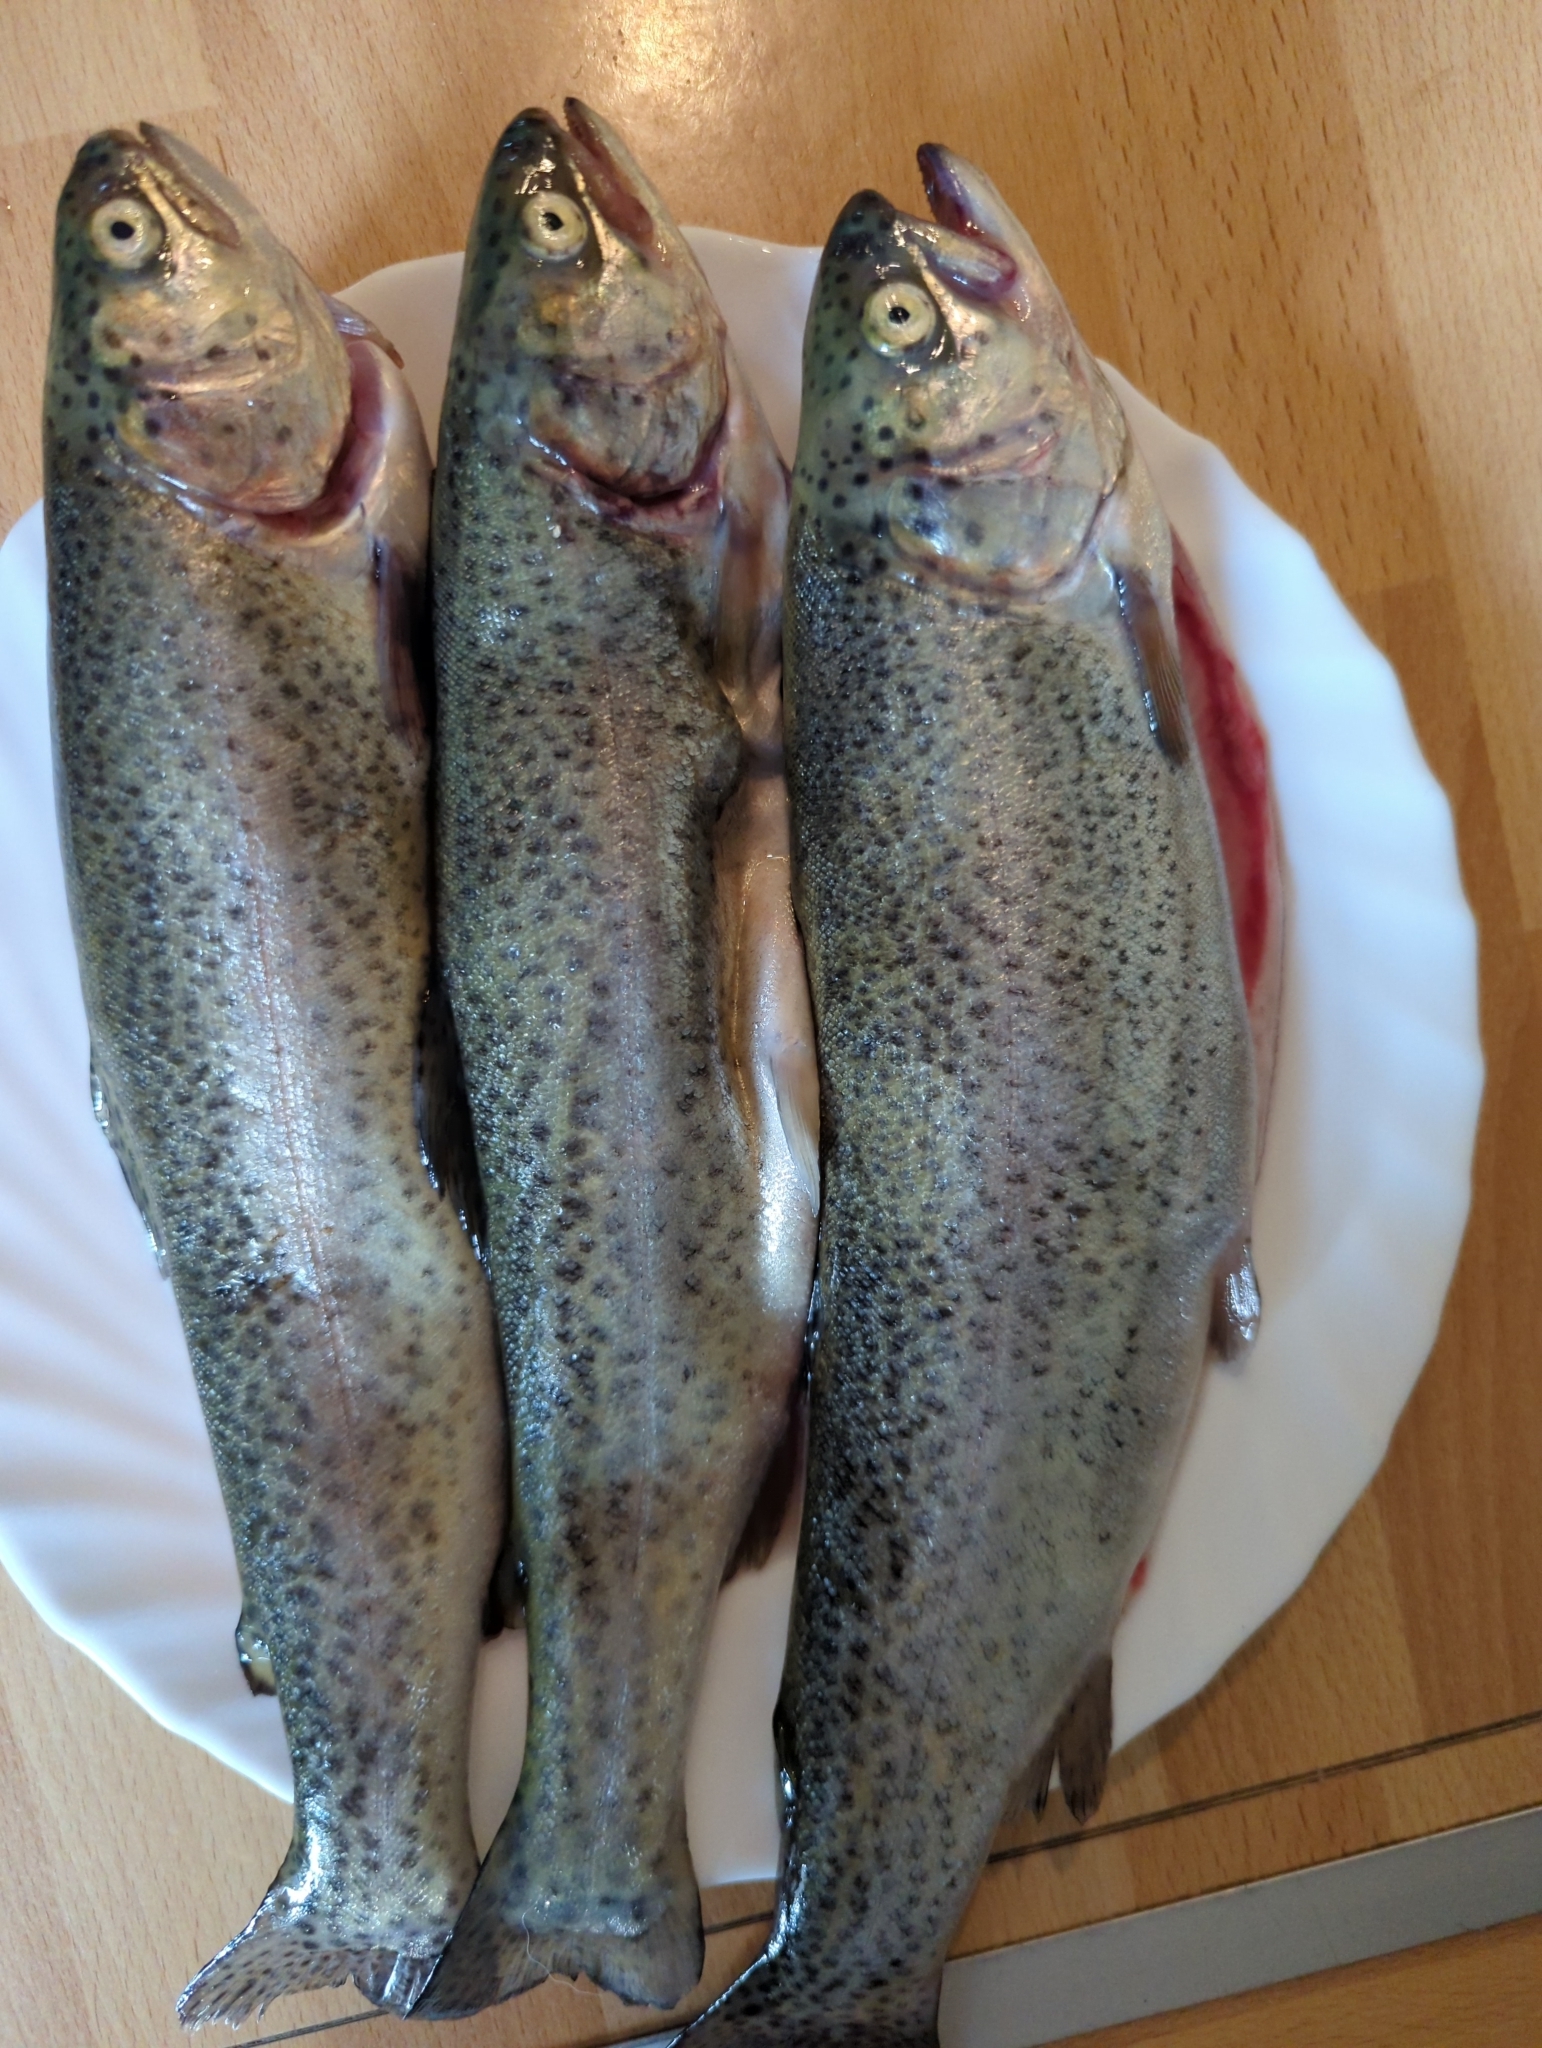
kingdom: Animalia
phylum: Chordata
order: Salmoniformes
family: Salmonidae
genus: Oncorhynchus
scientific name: Oncorhynchus mykiss
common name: Rainbow trout
